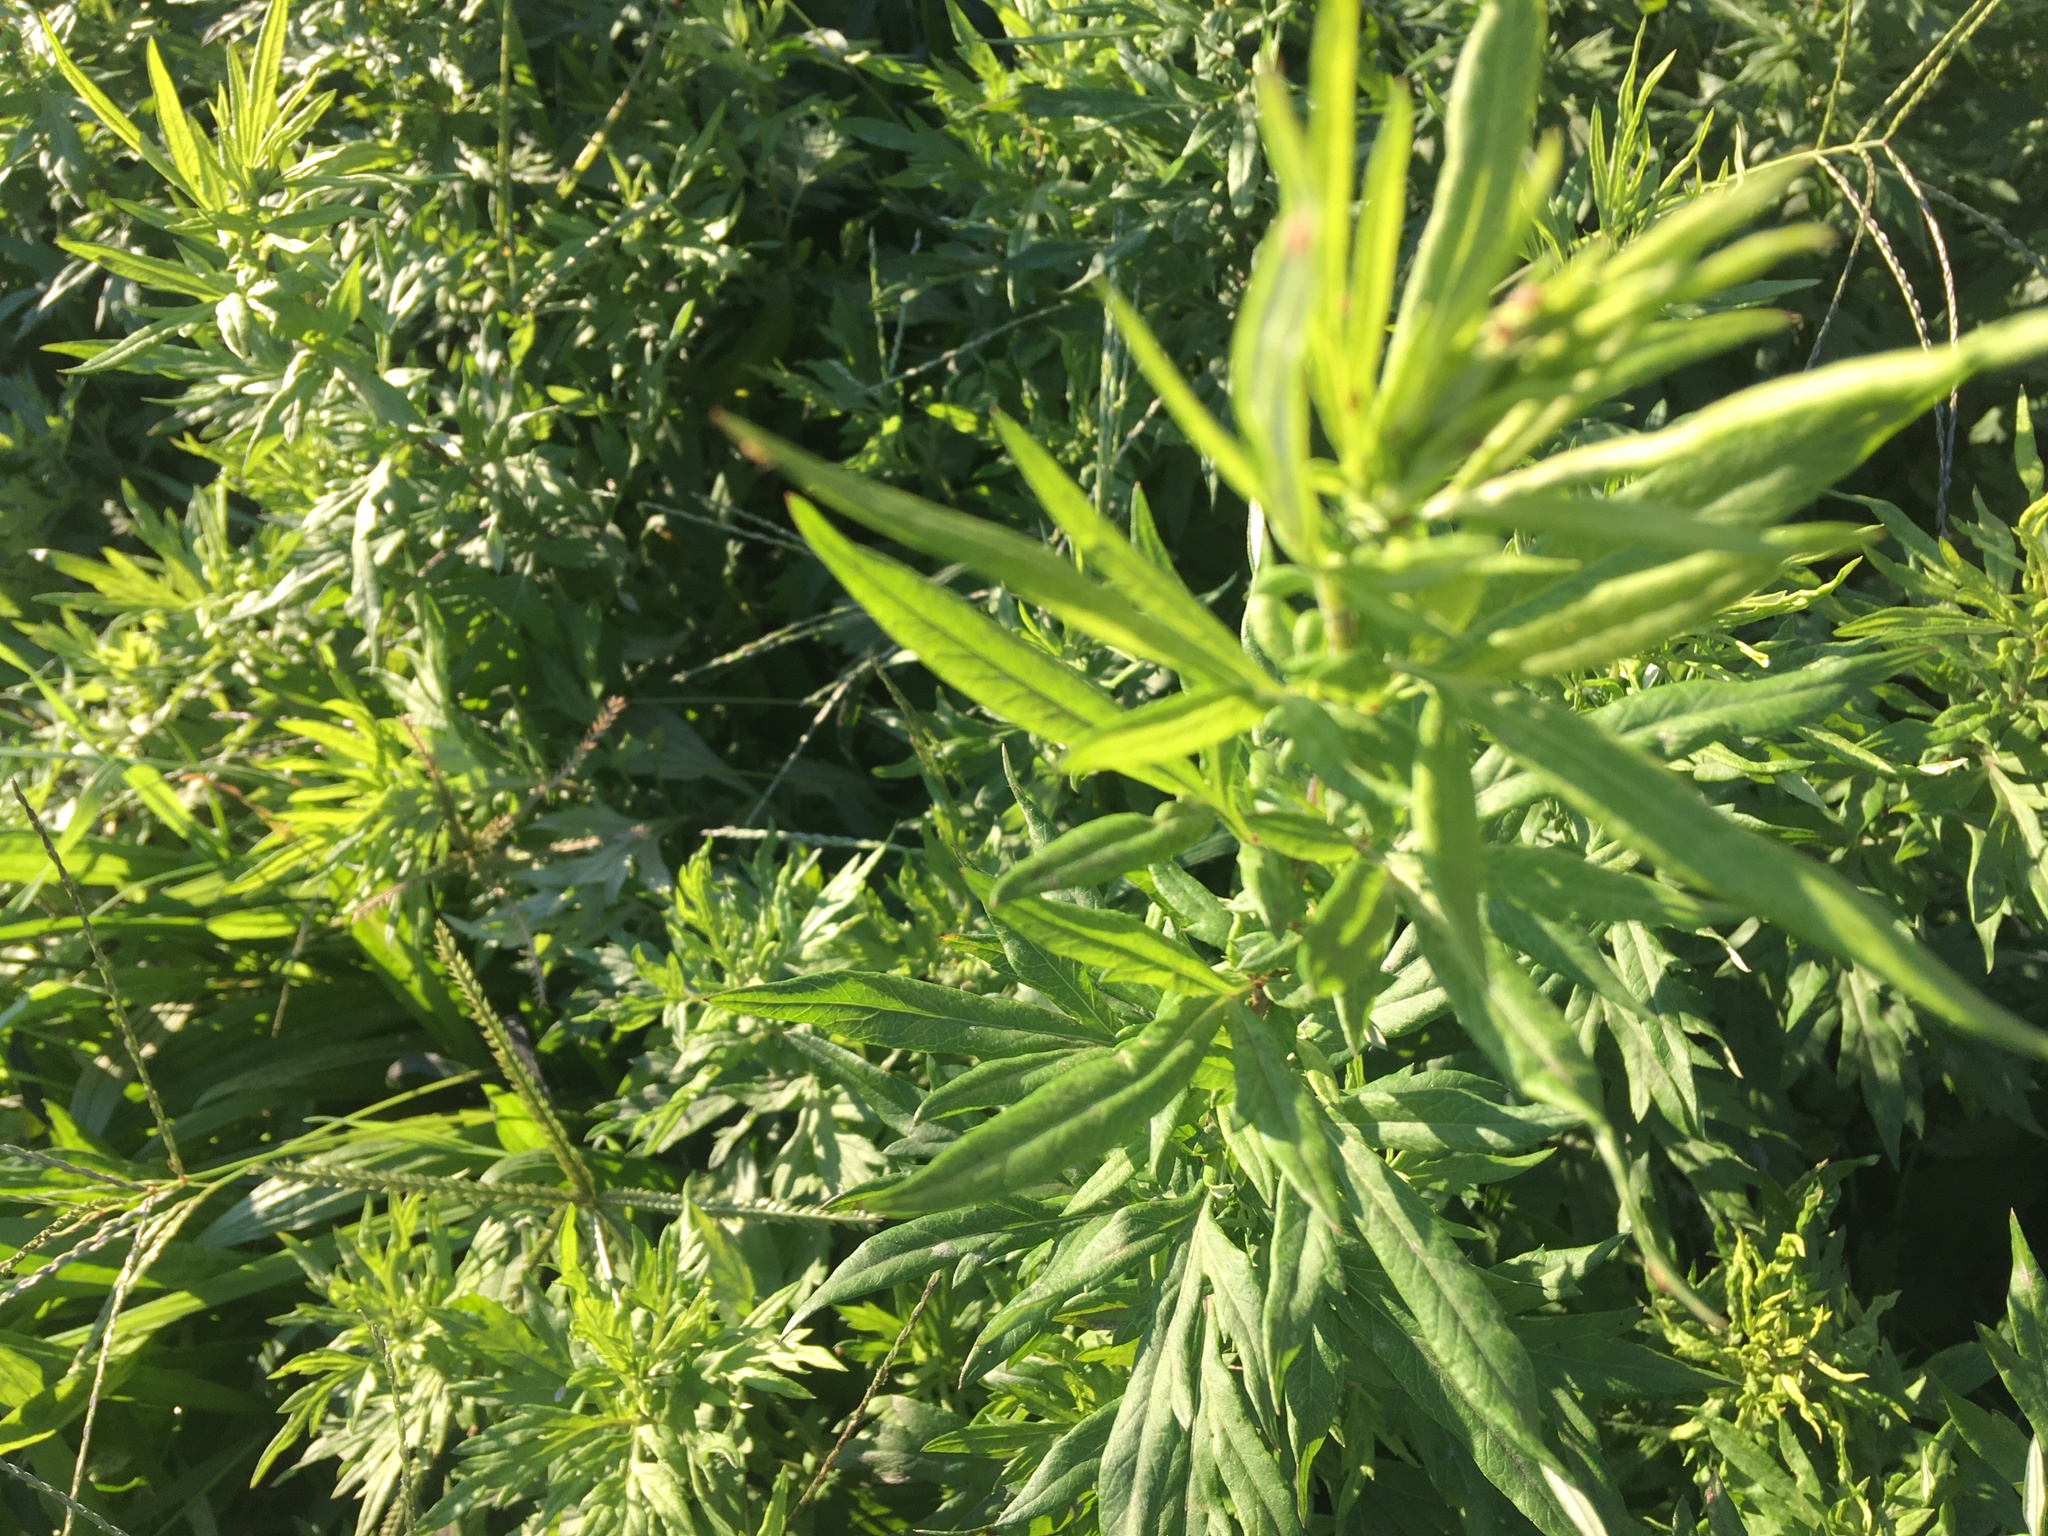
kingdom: Plantae
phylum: Tracheophyta
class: Magnoliopsida
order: Asterales
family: Asteraceae
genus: Artemisia
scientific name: Artemisia vulgaris
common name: Mugwort
